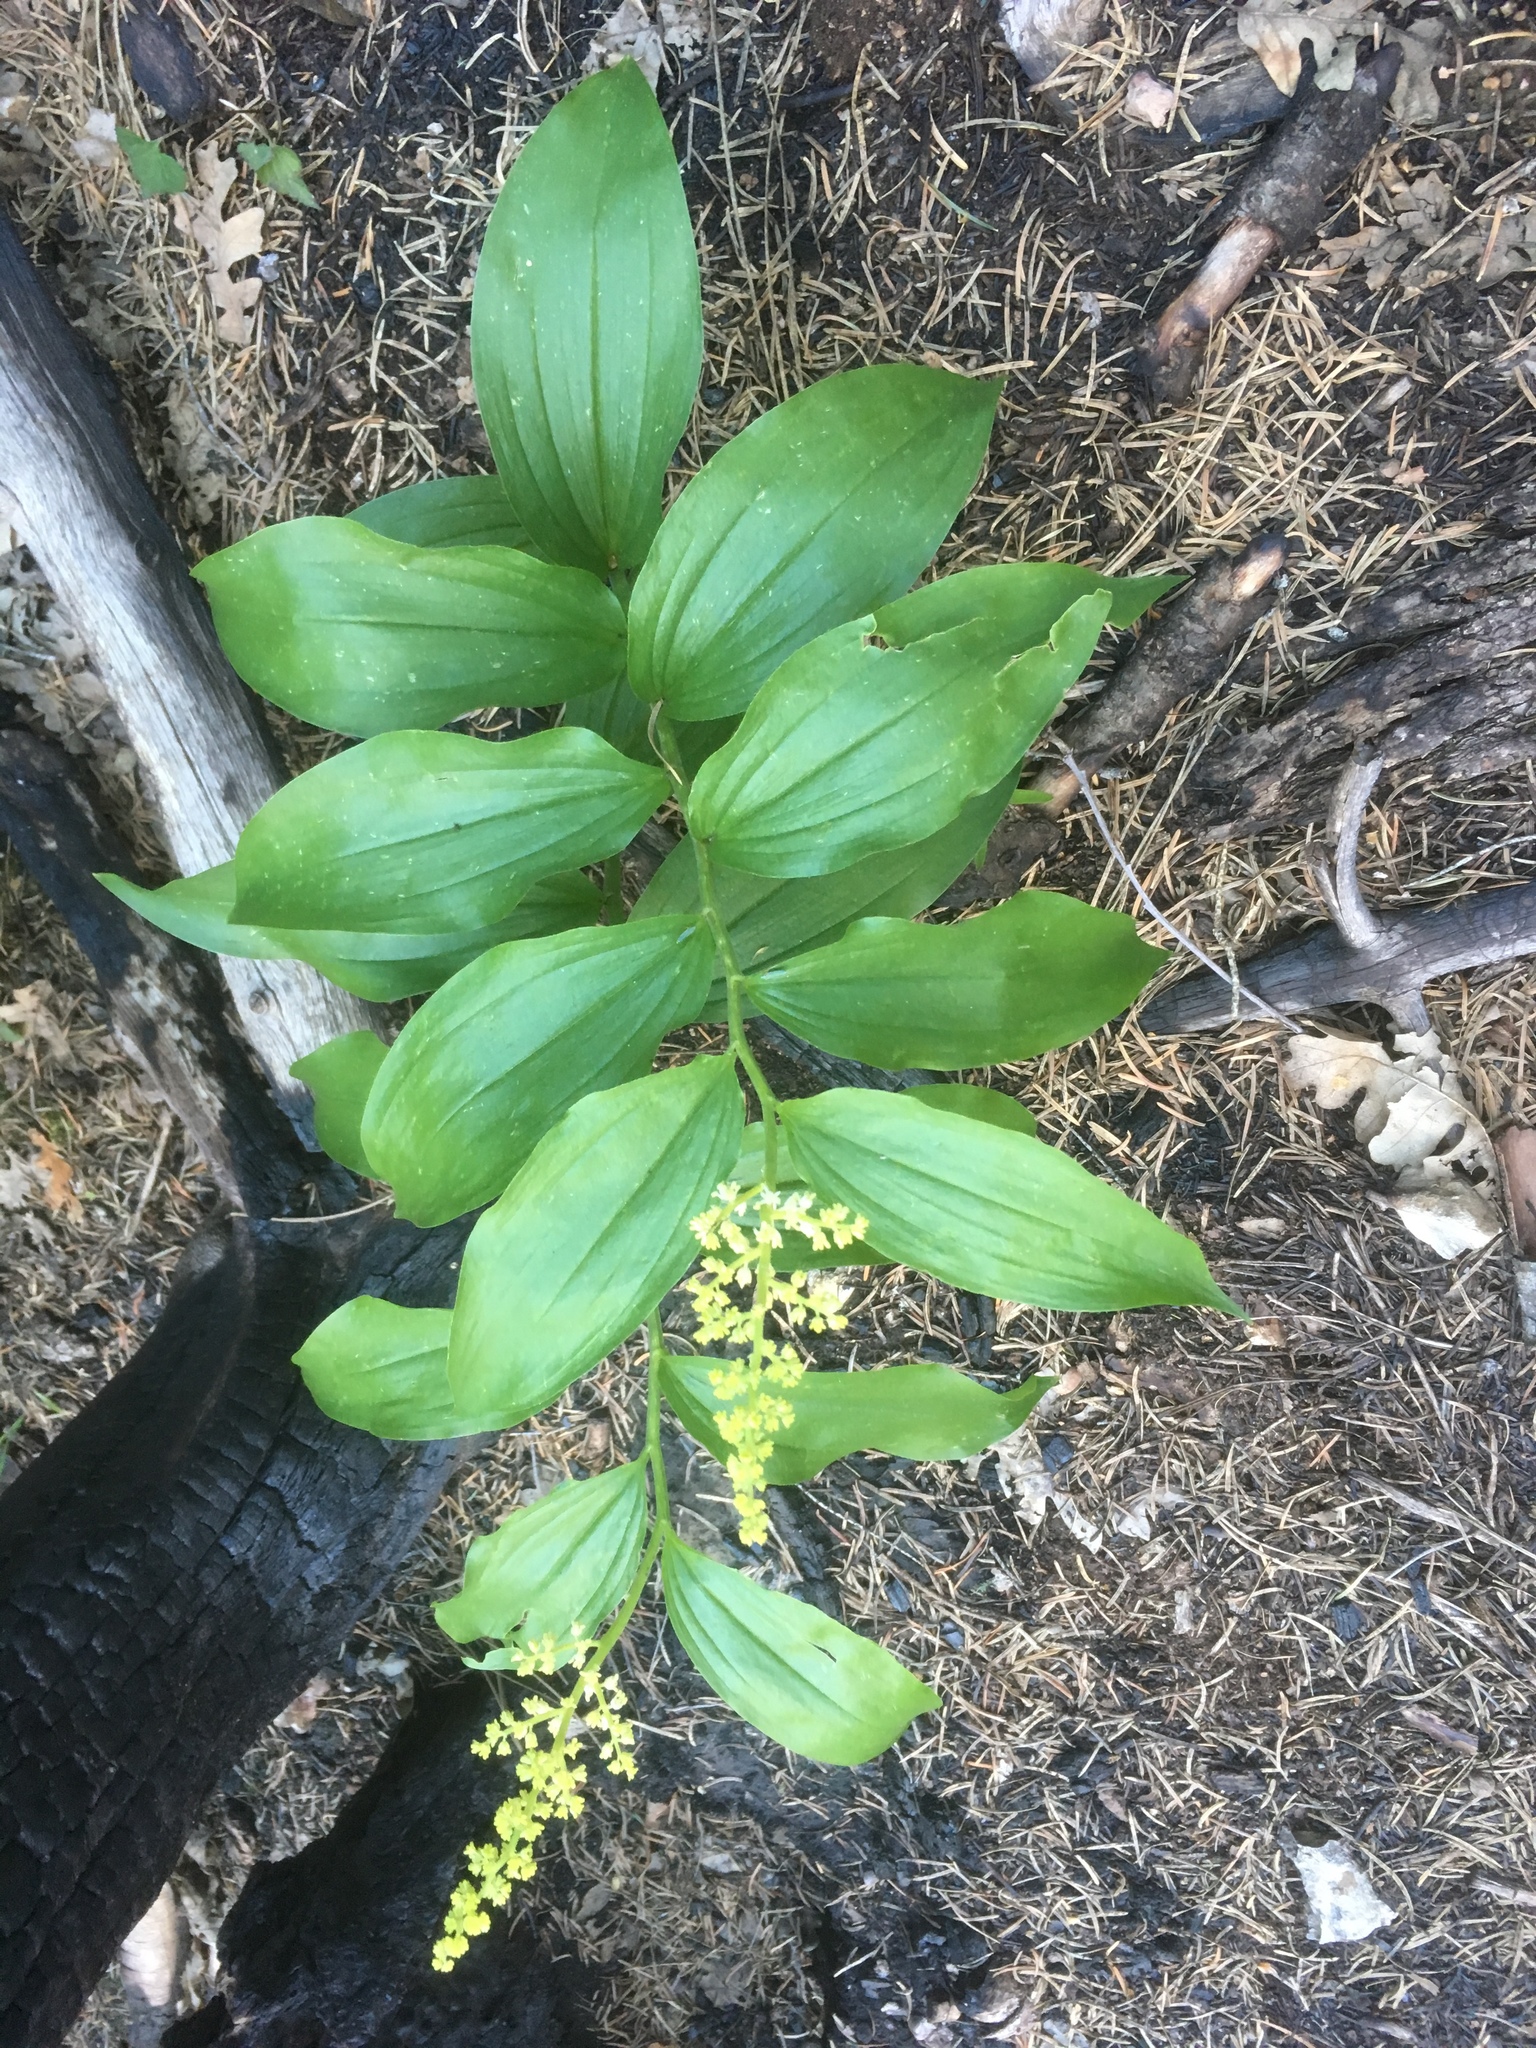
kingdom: Plantae
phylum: Tracheophyta
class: Liliopsida
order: Asparagales
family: Asparagaceae
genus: Maianthemum
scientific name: Maianthemum racemosum
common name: False spikenard
